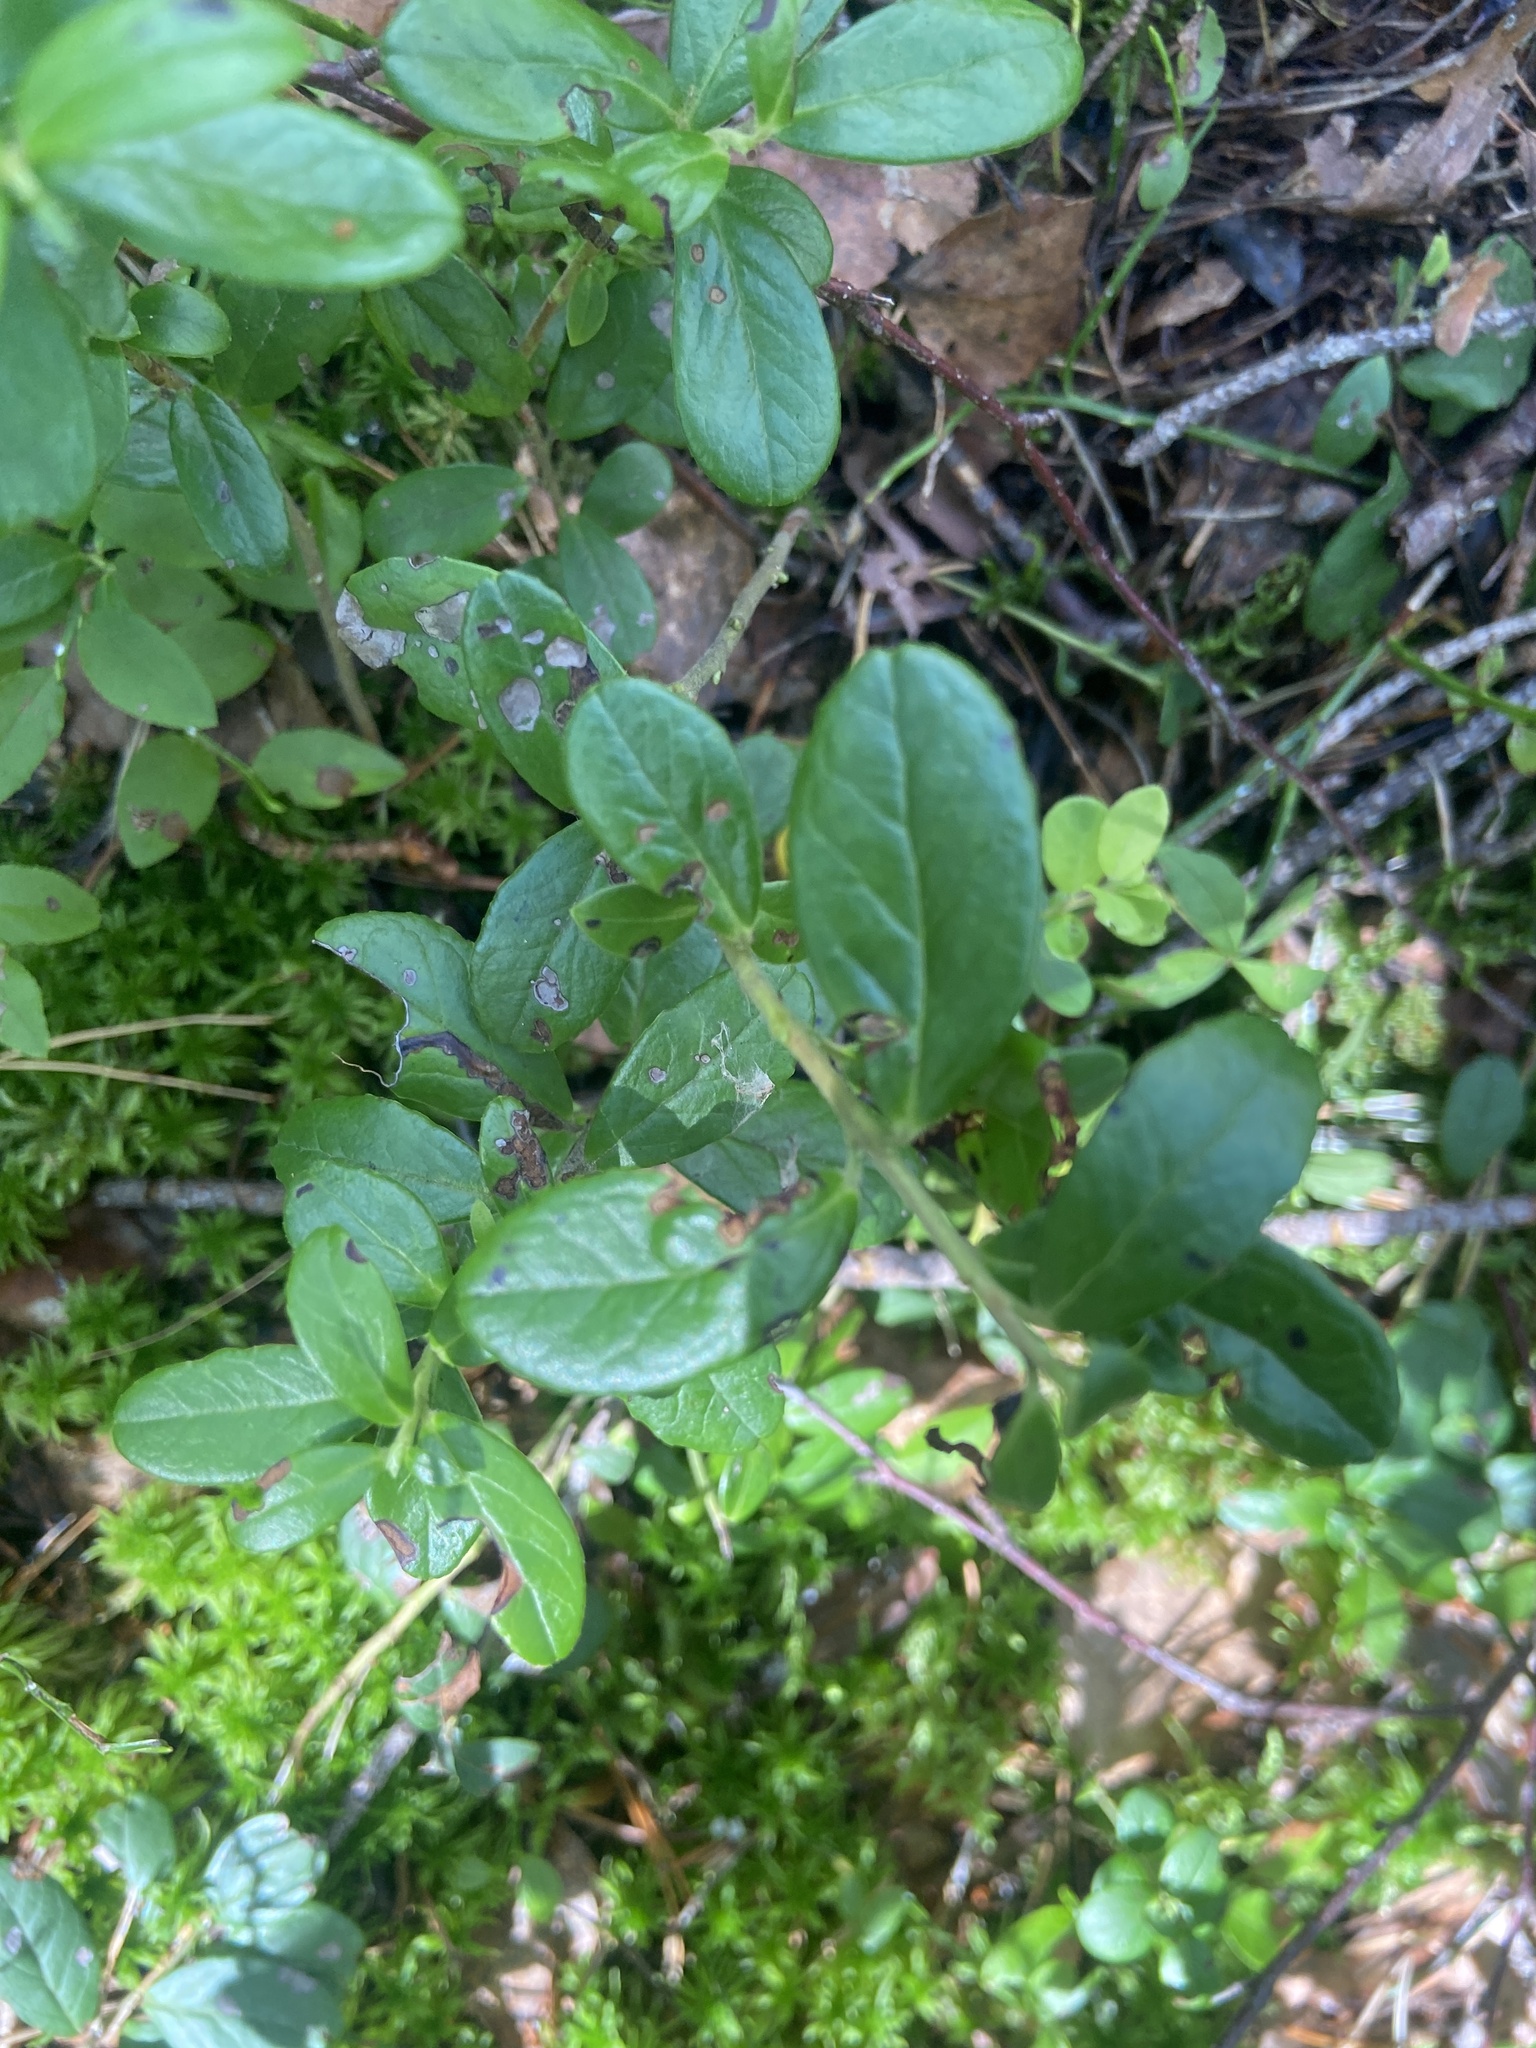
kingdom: Plantae
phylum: Tracheophyta
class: Magnoliopsida
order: Ericales
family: Ericaceae
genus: Vaccinium
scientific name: Vaccinium vitis-idaea
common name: Cowberry
